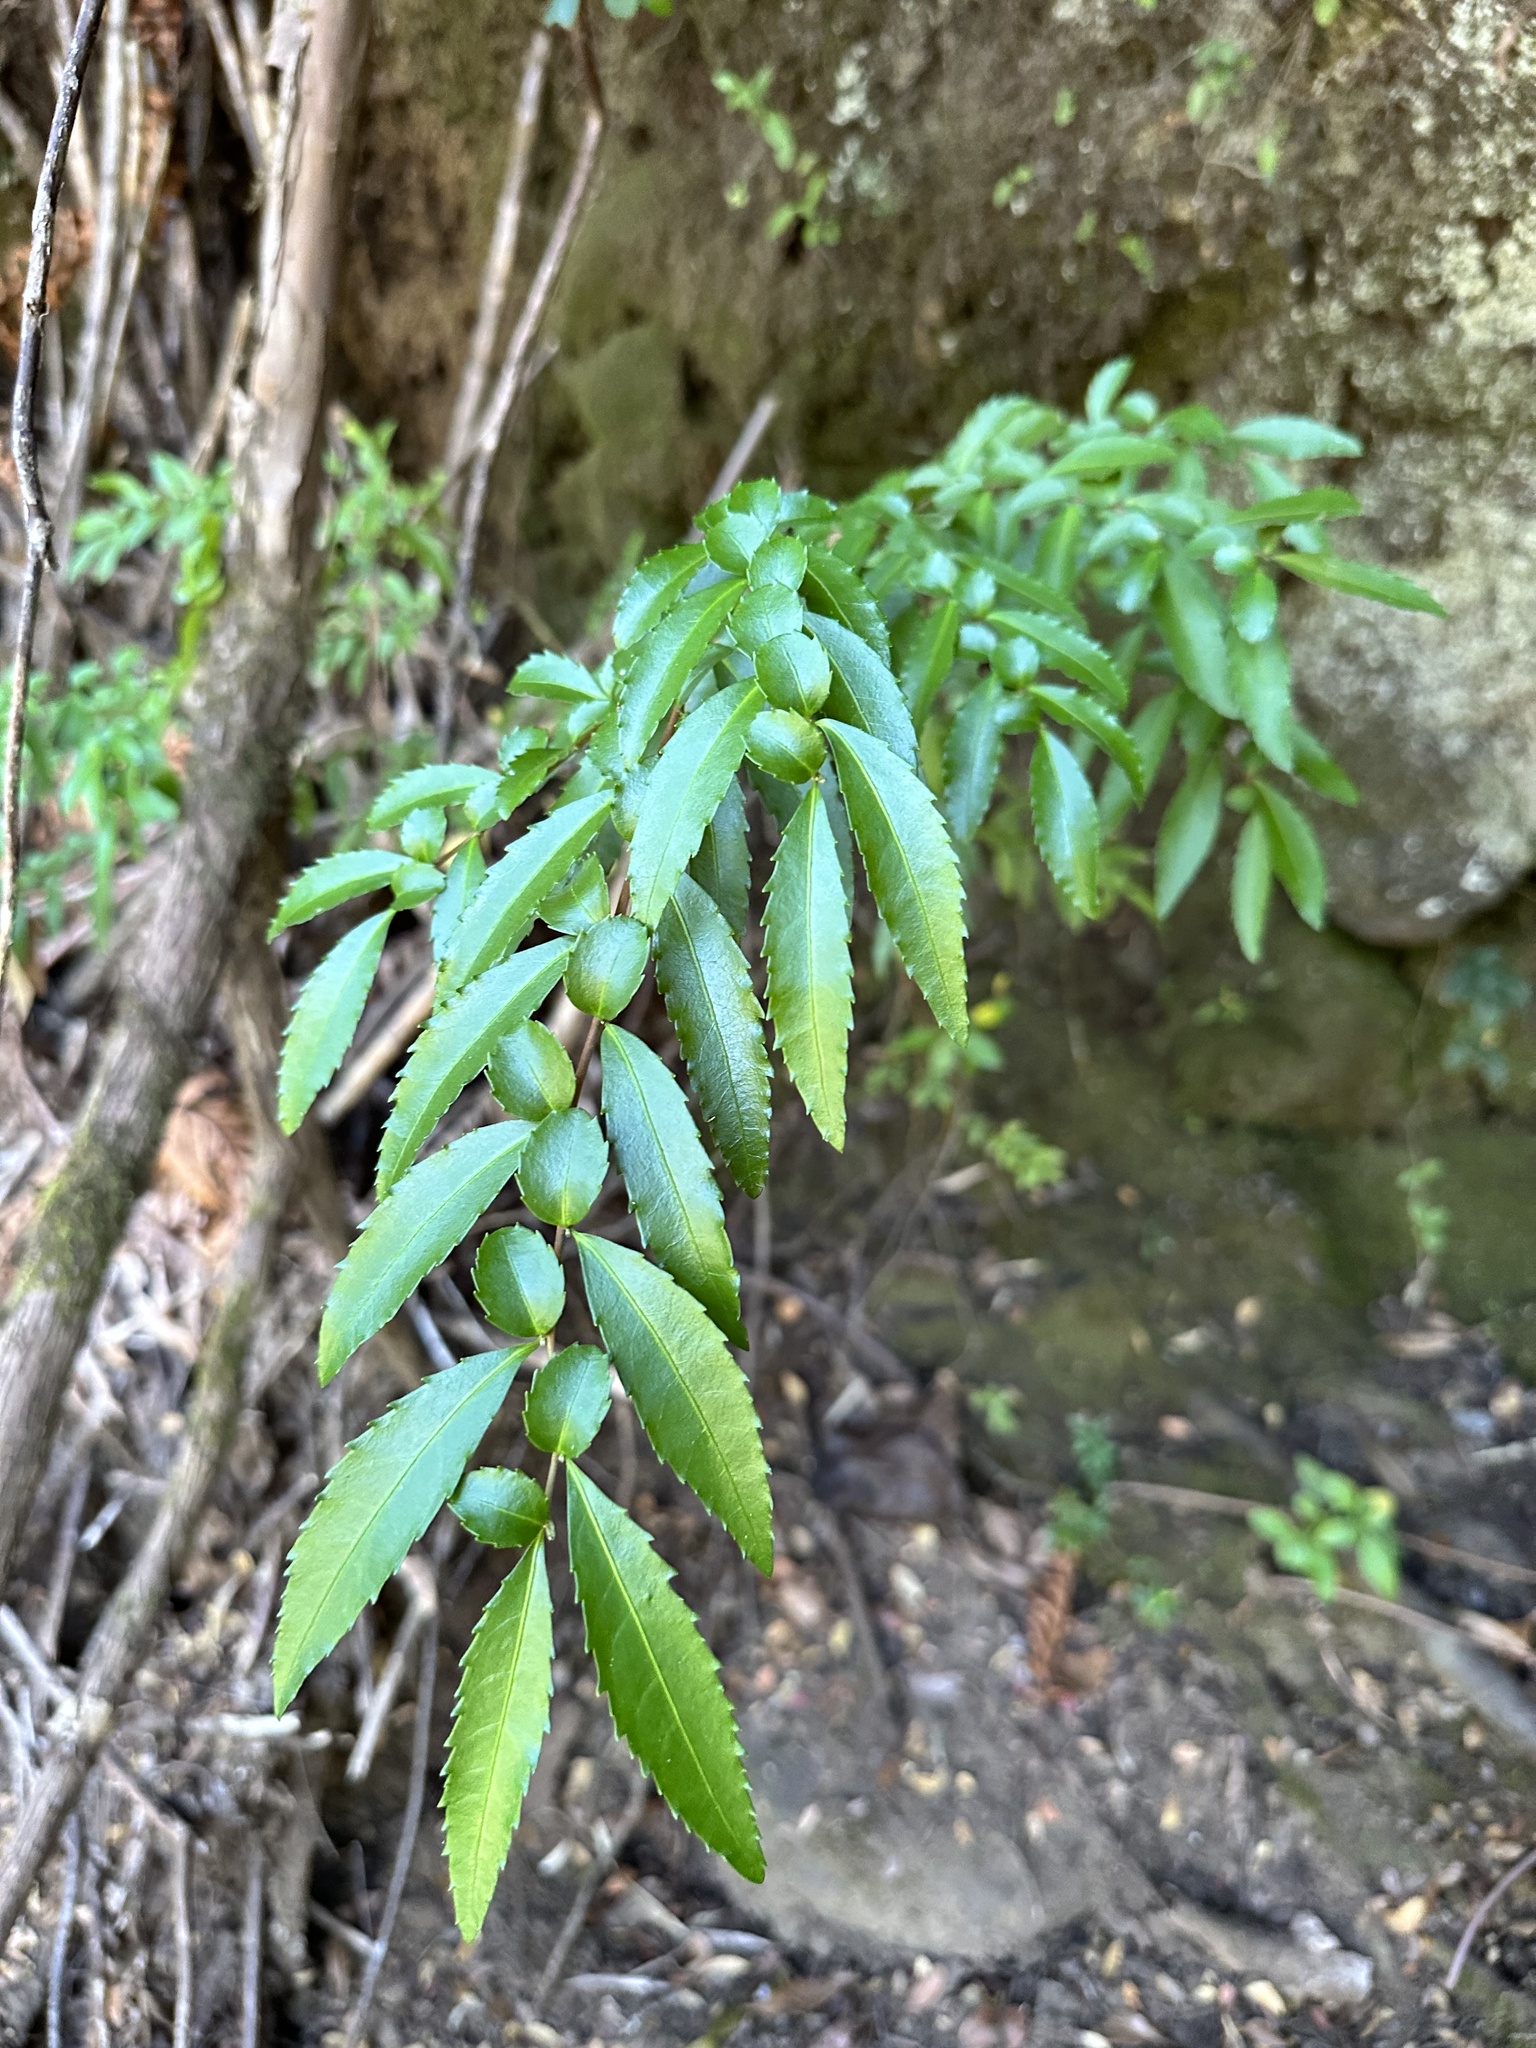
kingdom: Plantae
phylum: Tracheophyta
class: Magnoliopsida
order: Malpighiales
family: Salicaceae
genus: Azara
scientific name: Azara lanceolata
